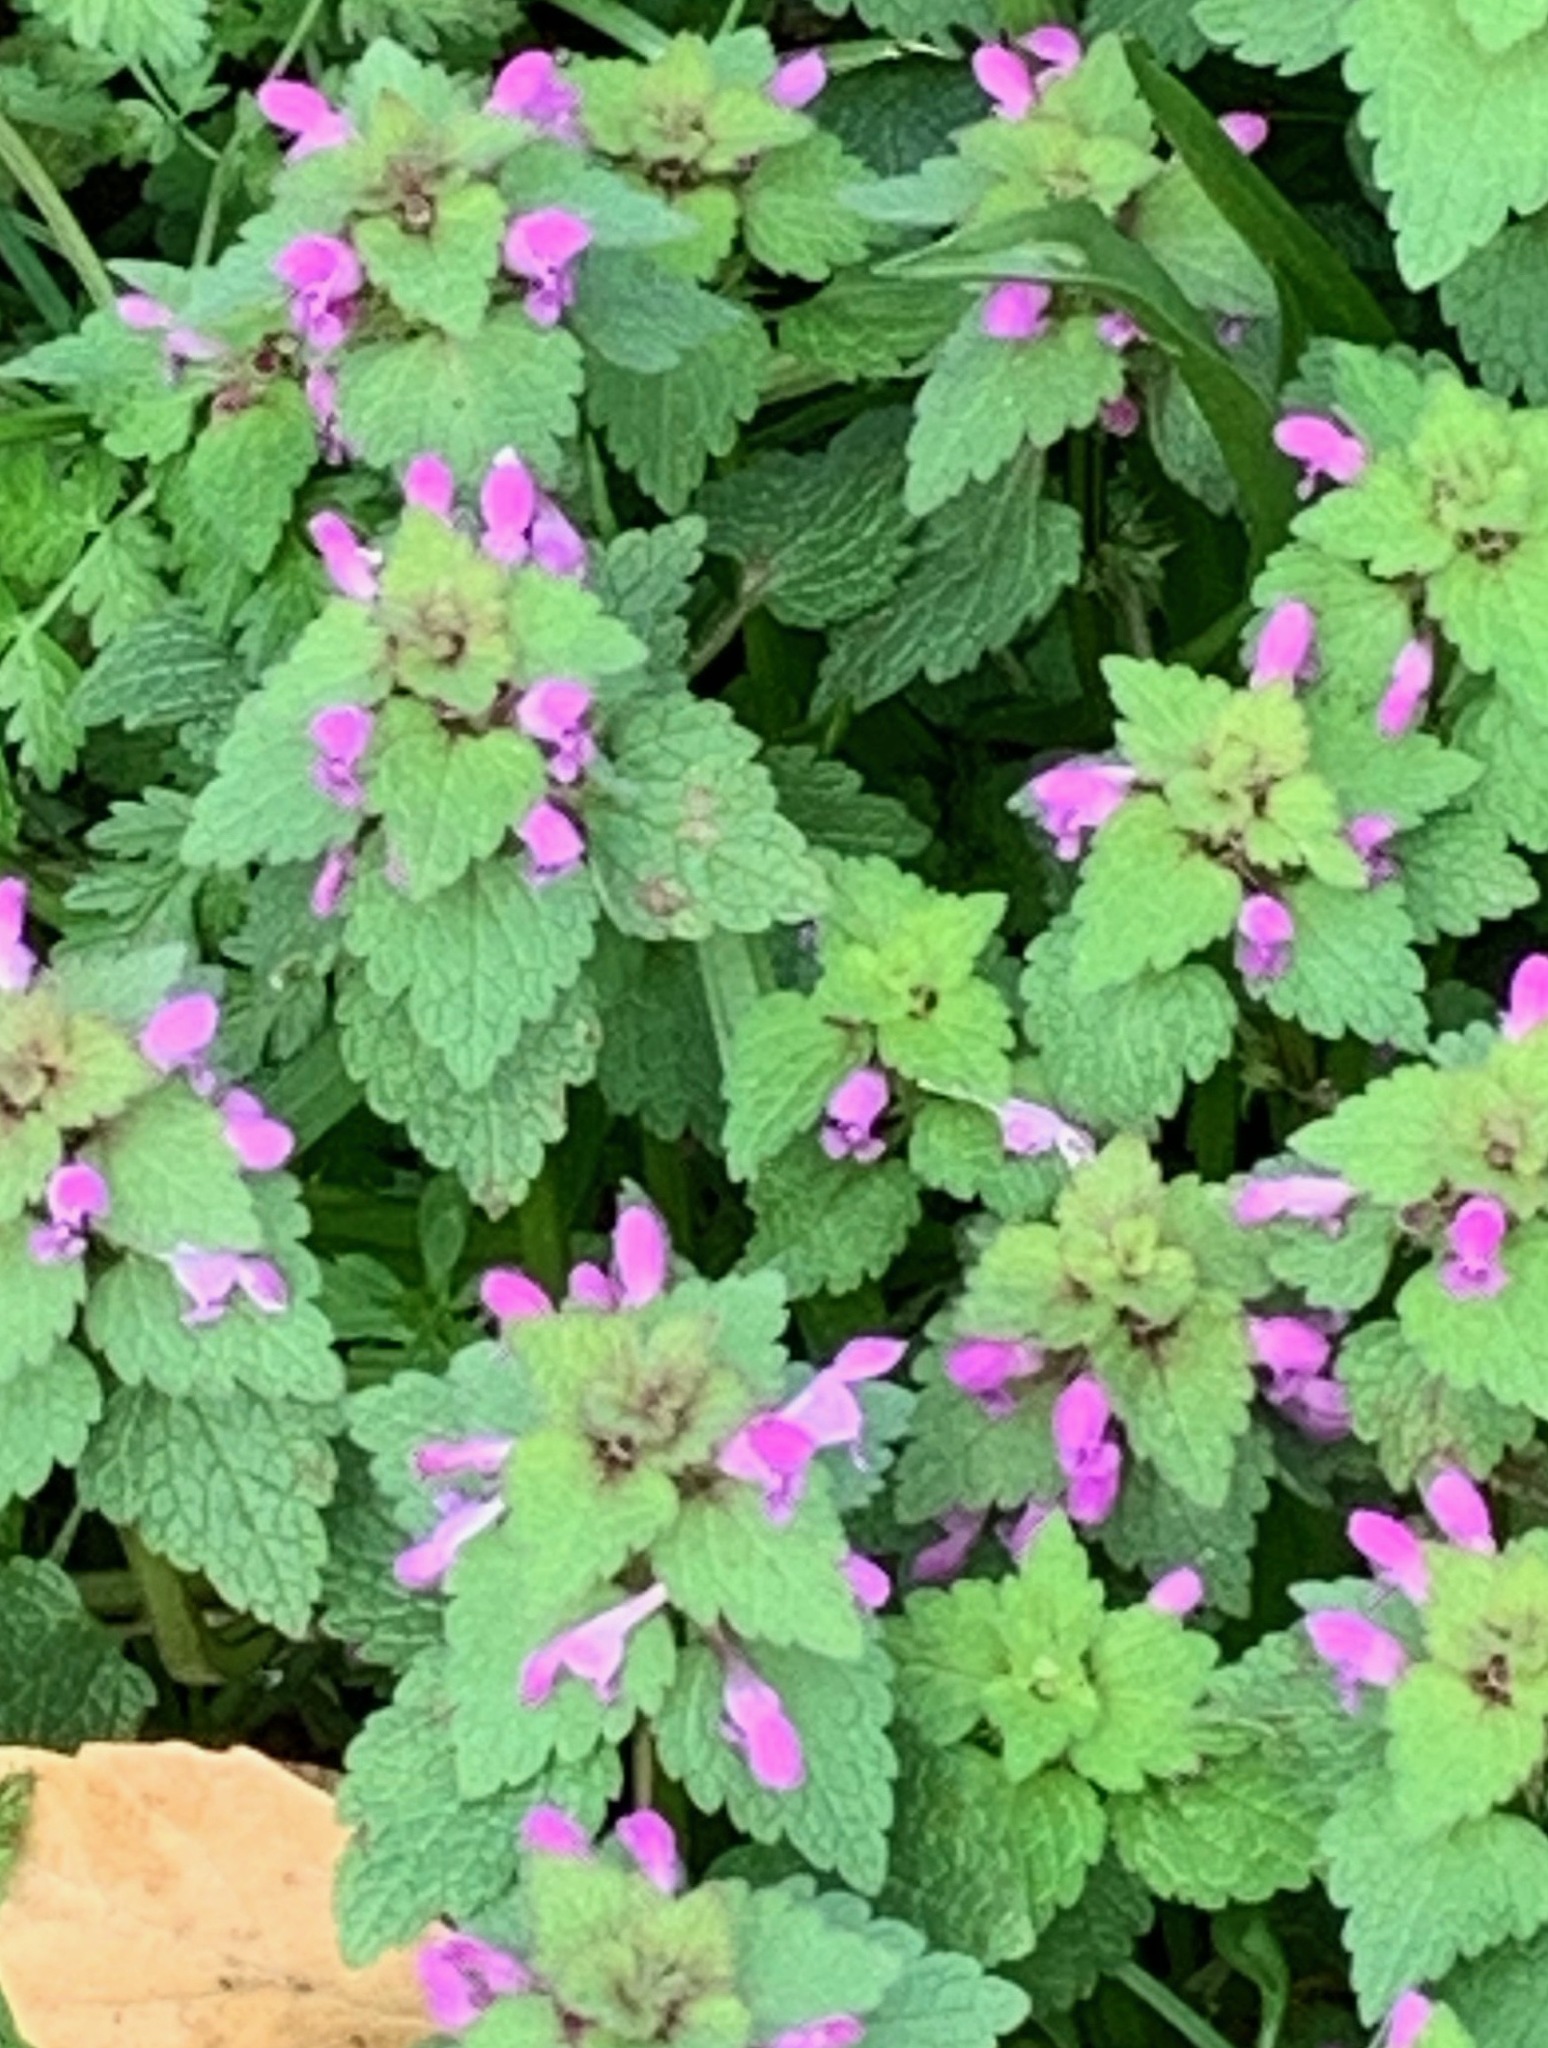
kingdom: Plantae
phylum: Tracheophyta
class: Magnoliopsida
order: Lamiales
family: Lamiaceae
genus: Lamium
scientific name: Lamium purpureum
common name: Red dead-nettle
